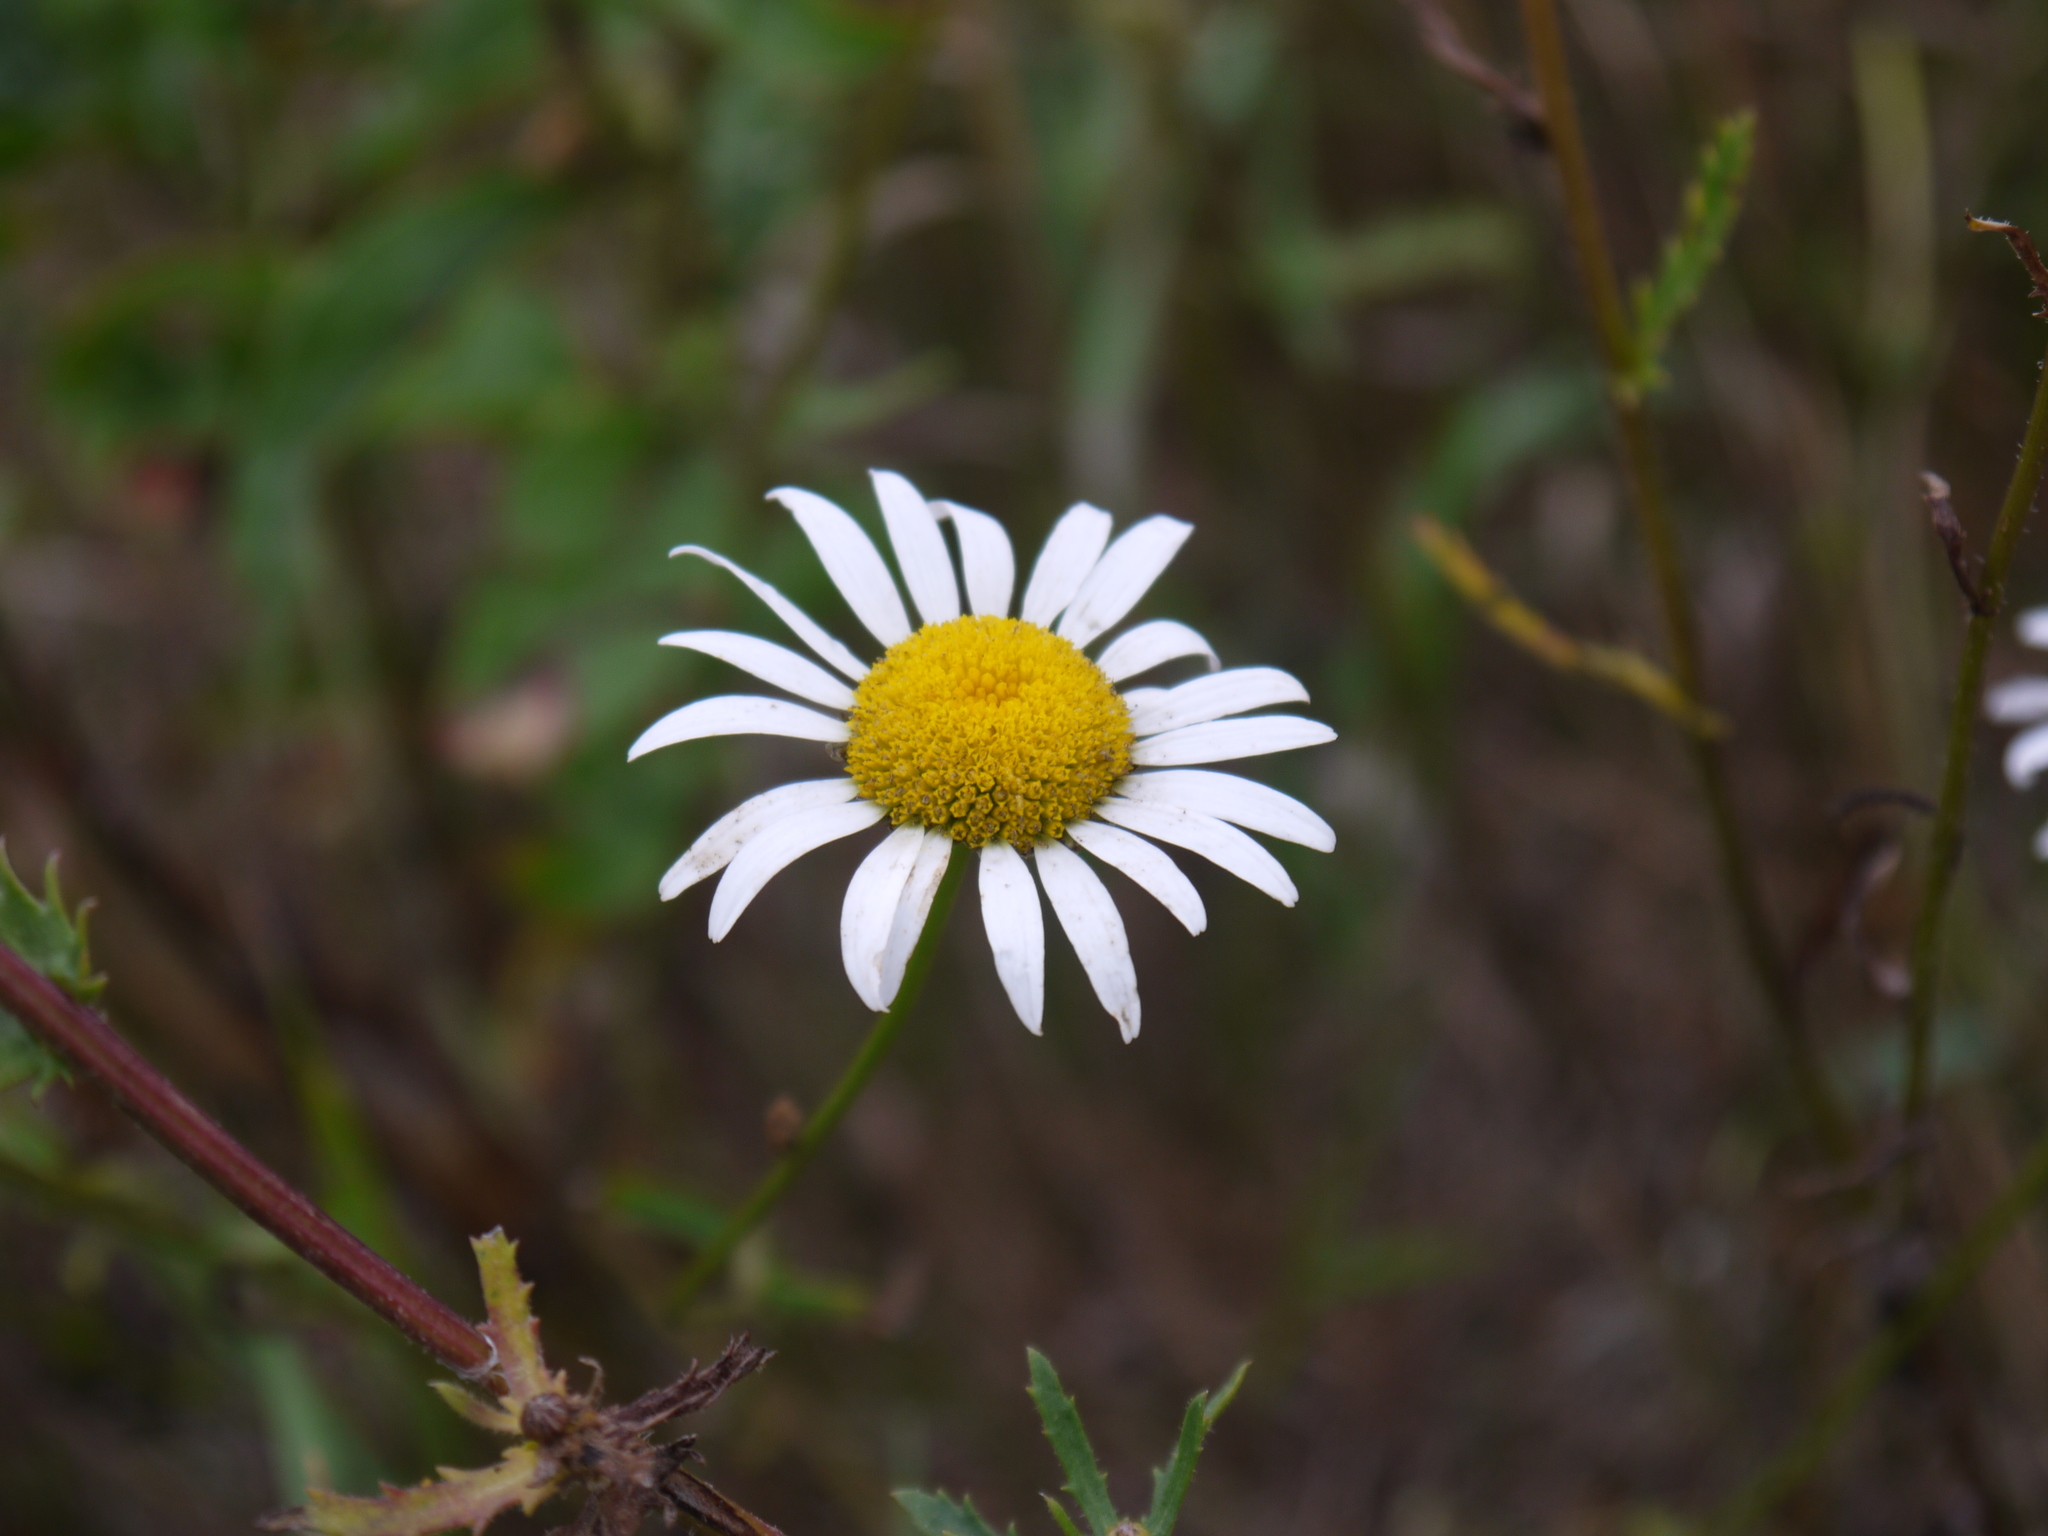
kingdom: Plantae
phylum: Tracheophyta
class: Magnoliopsida
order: Asterales
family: Asteraceae
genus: Leucanthemum
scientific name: Leucanthemum vulgare
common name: Oxeye daisy
